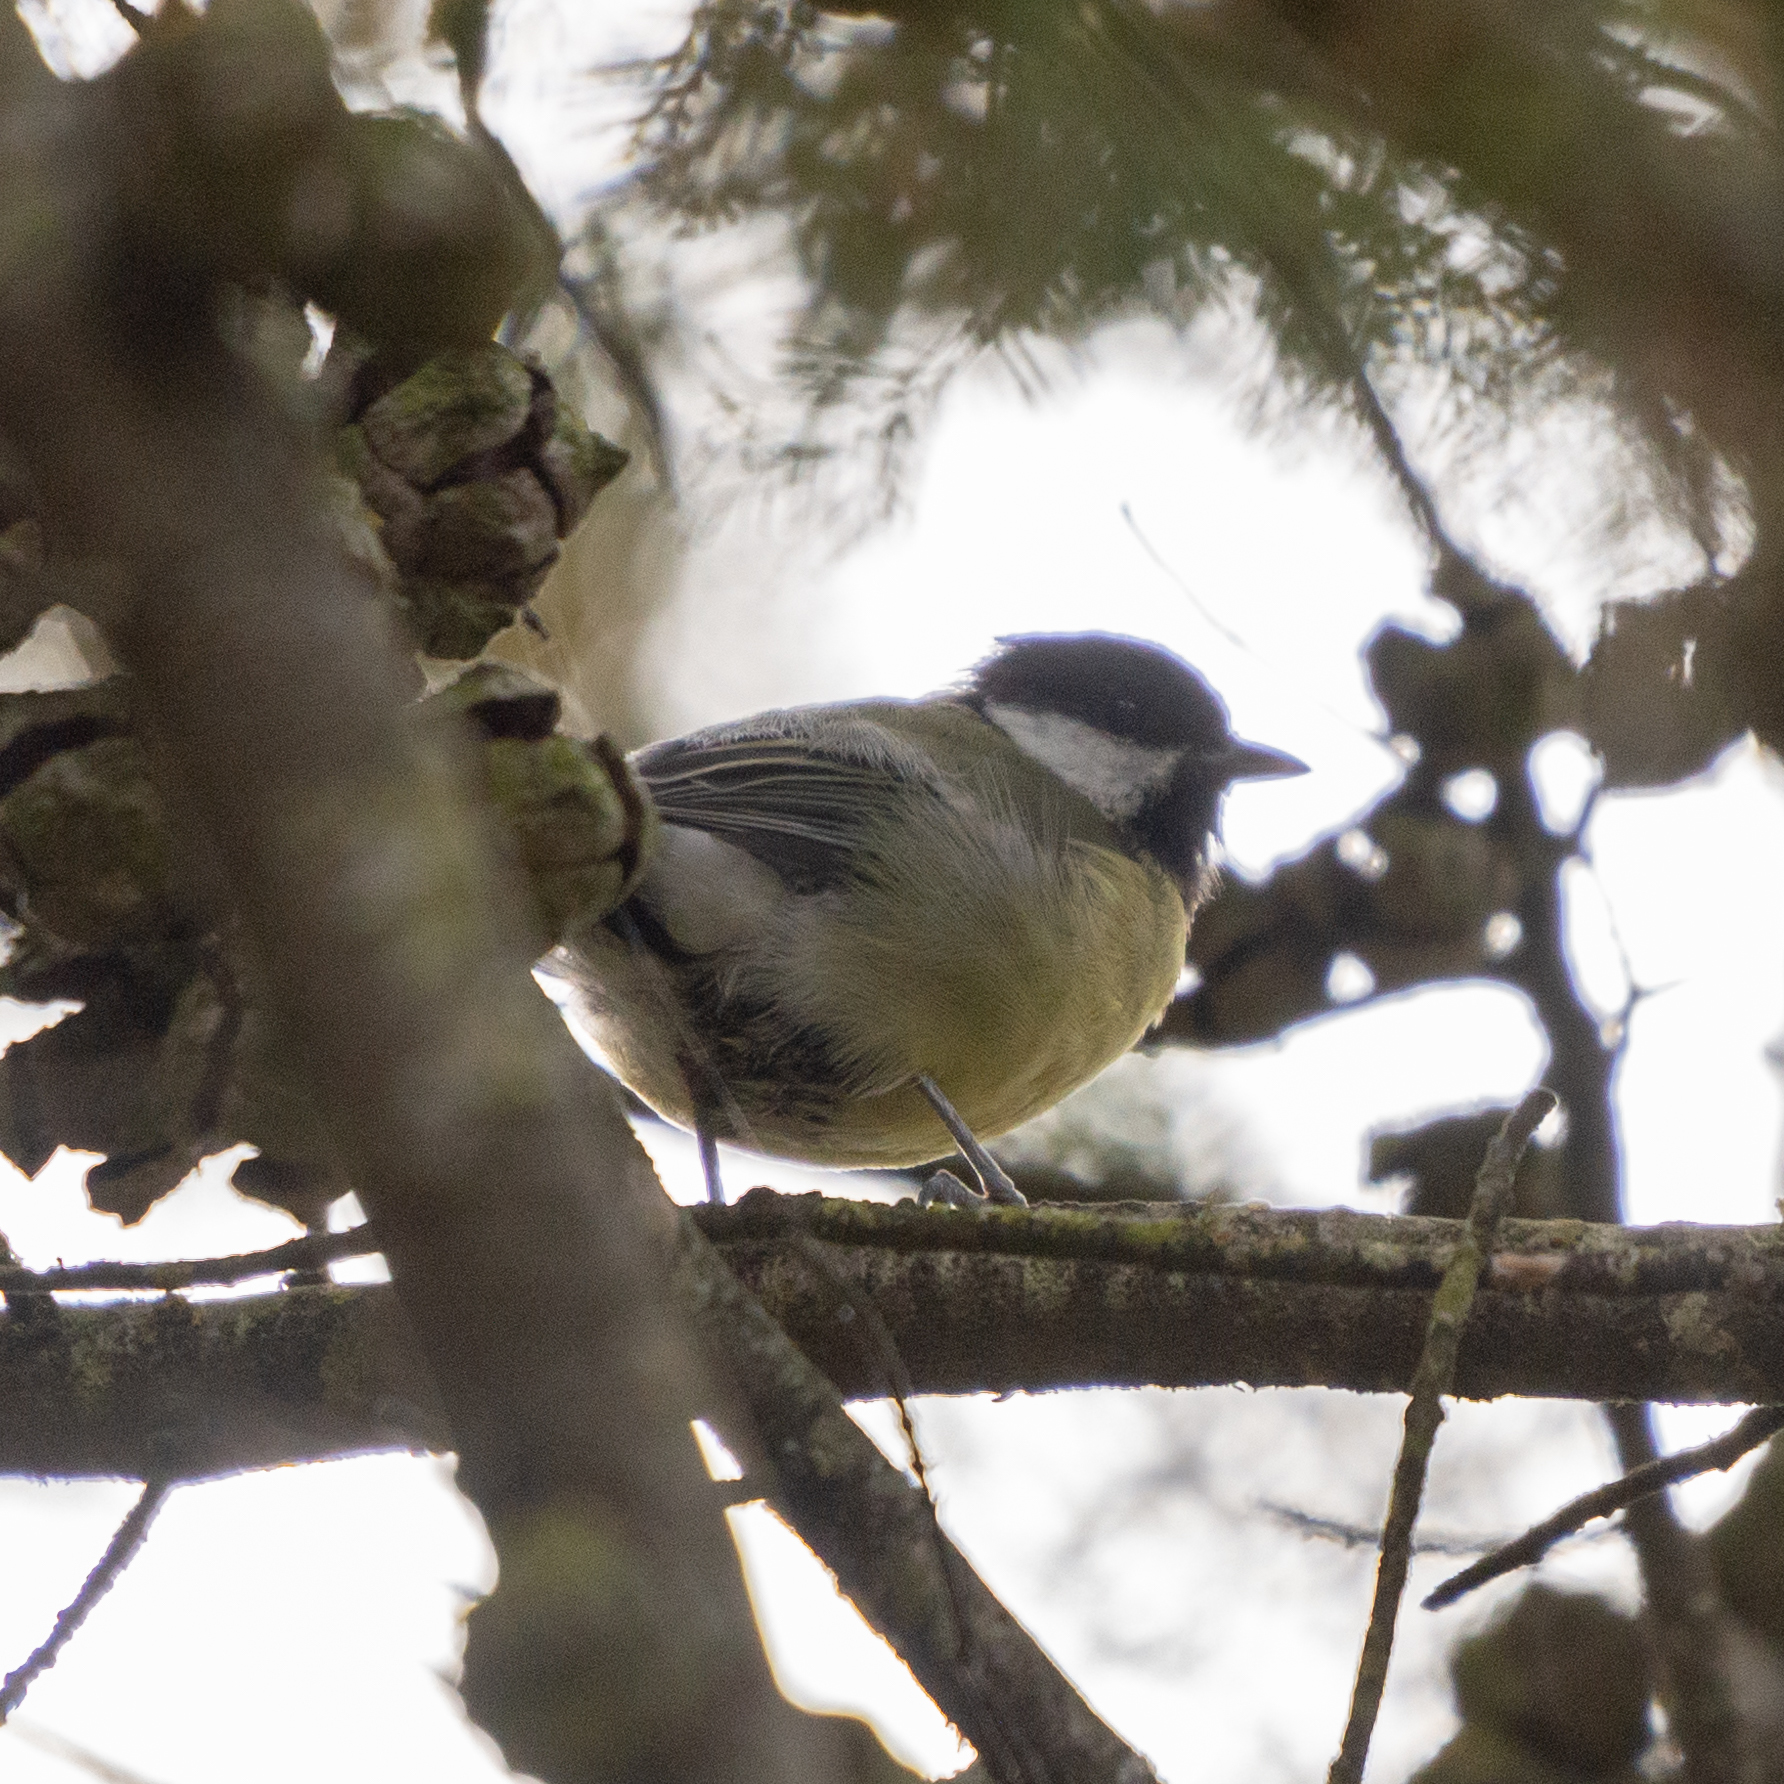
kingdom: Animalia
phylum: Chordata
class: Aves
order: Passeriformes
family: Paridae
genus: Parus
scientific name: Parus major
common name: Great tit
